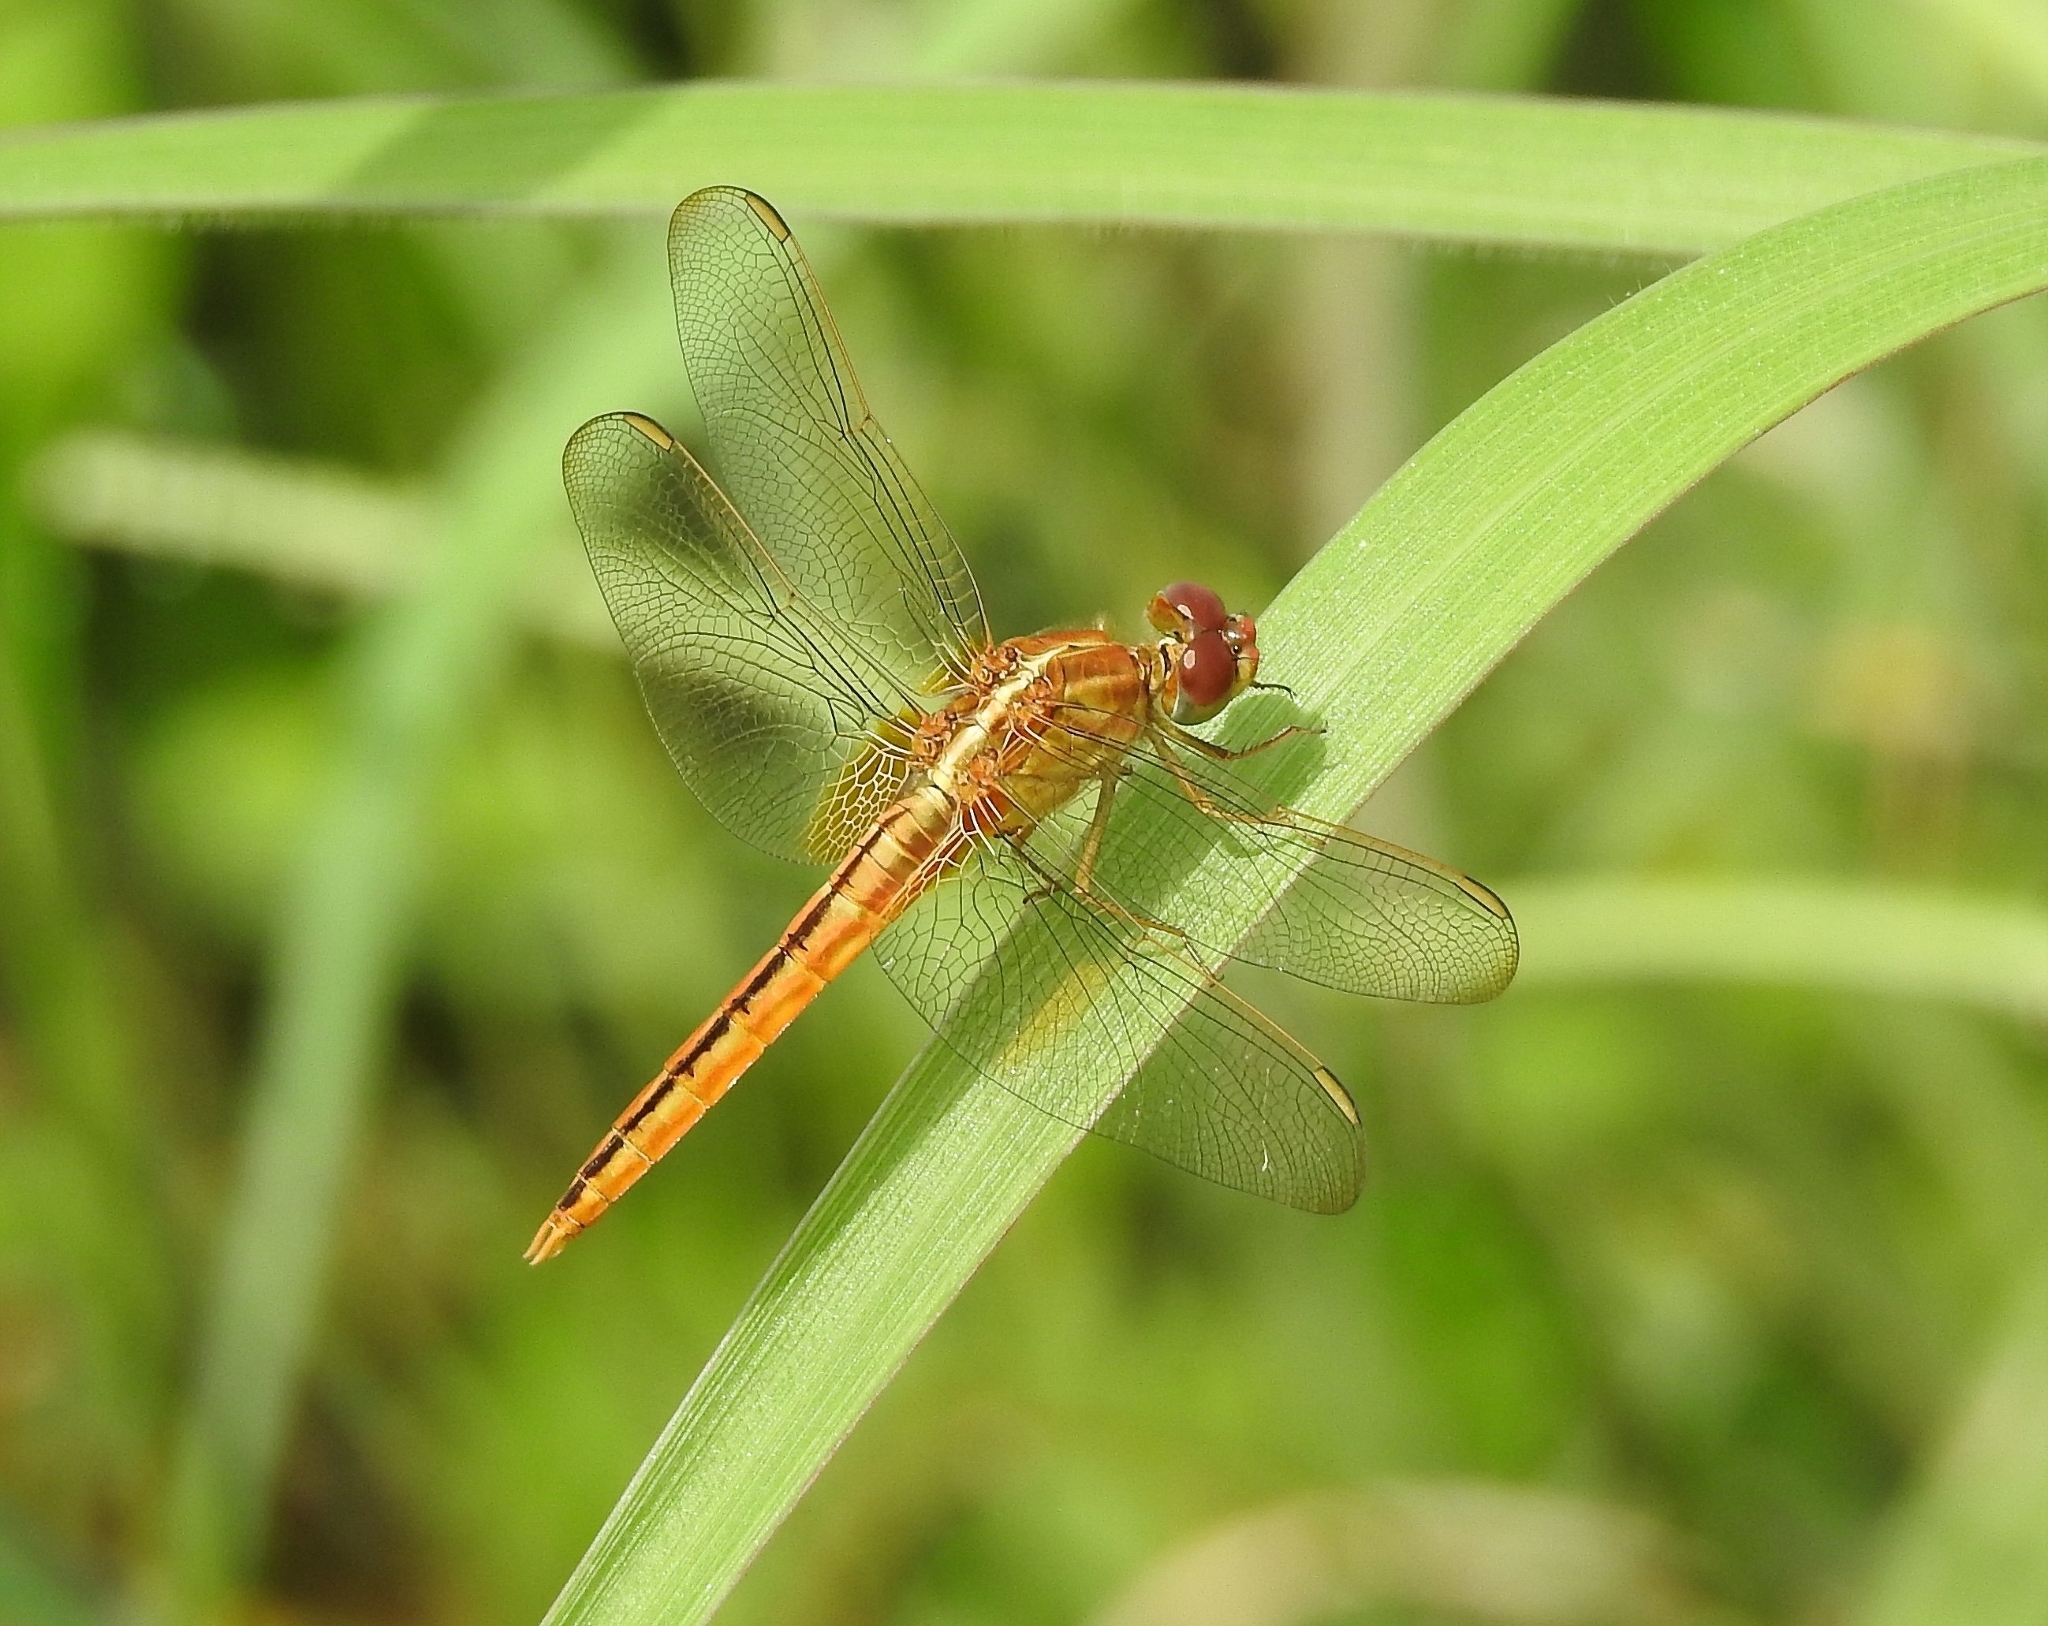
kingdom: Animalia
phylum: Arthropoda
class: Insecta
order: Odonata
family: Libellulidae
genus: Crocothemis
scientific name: Crocothemis servilia
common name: Scarlet skimmer
